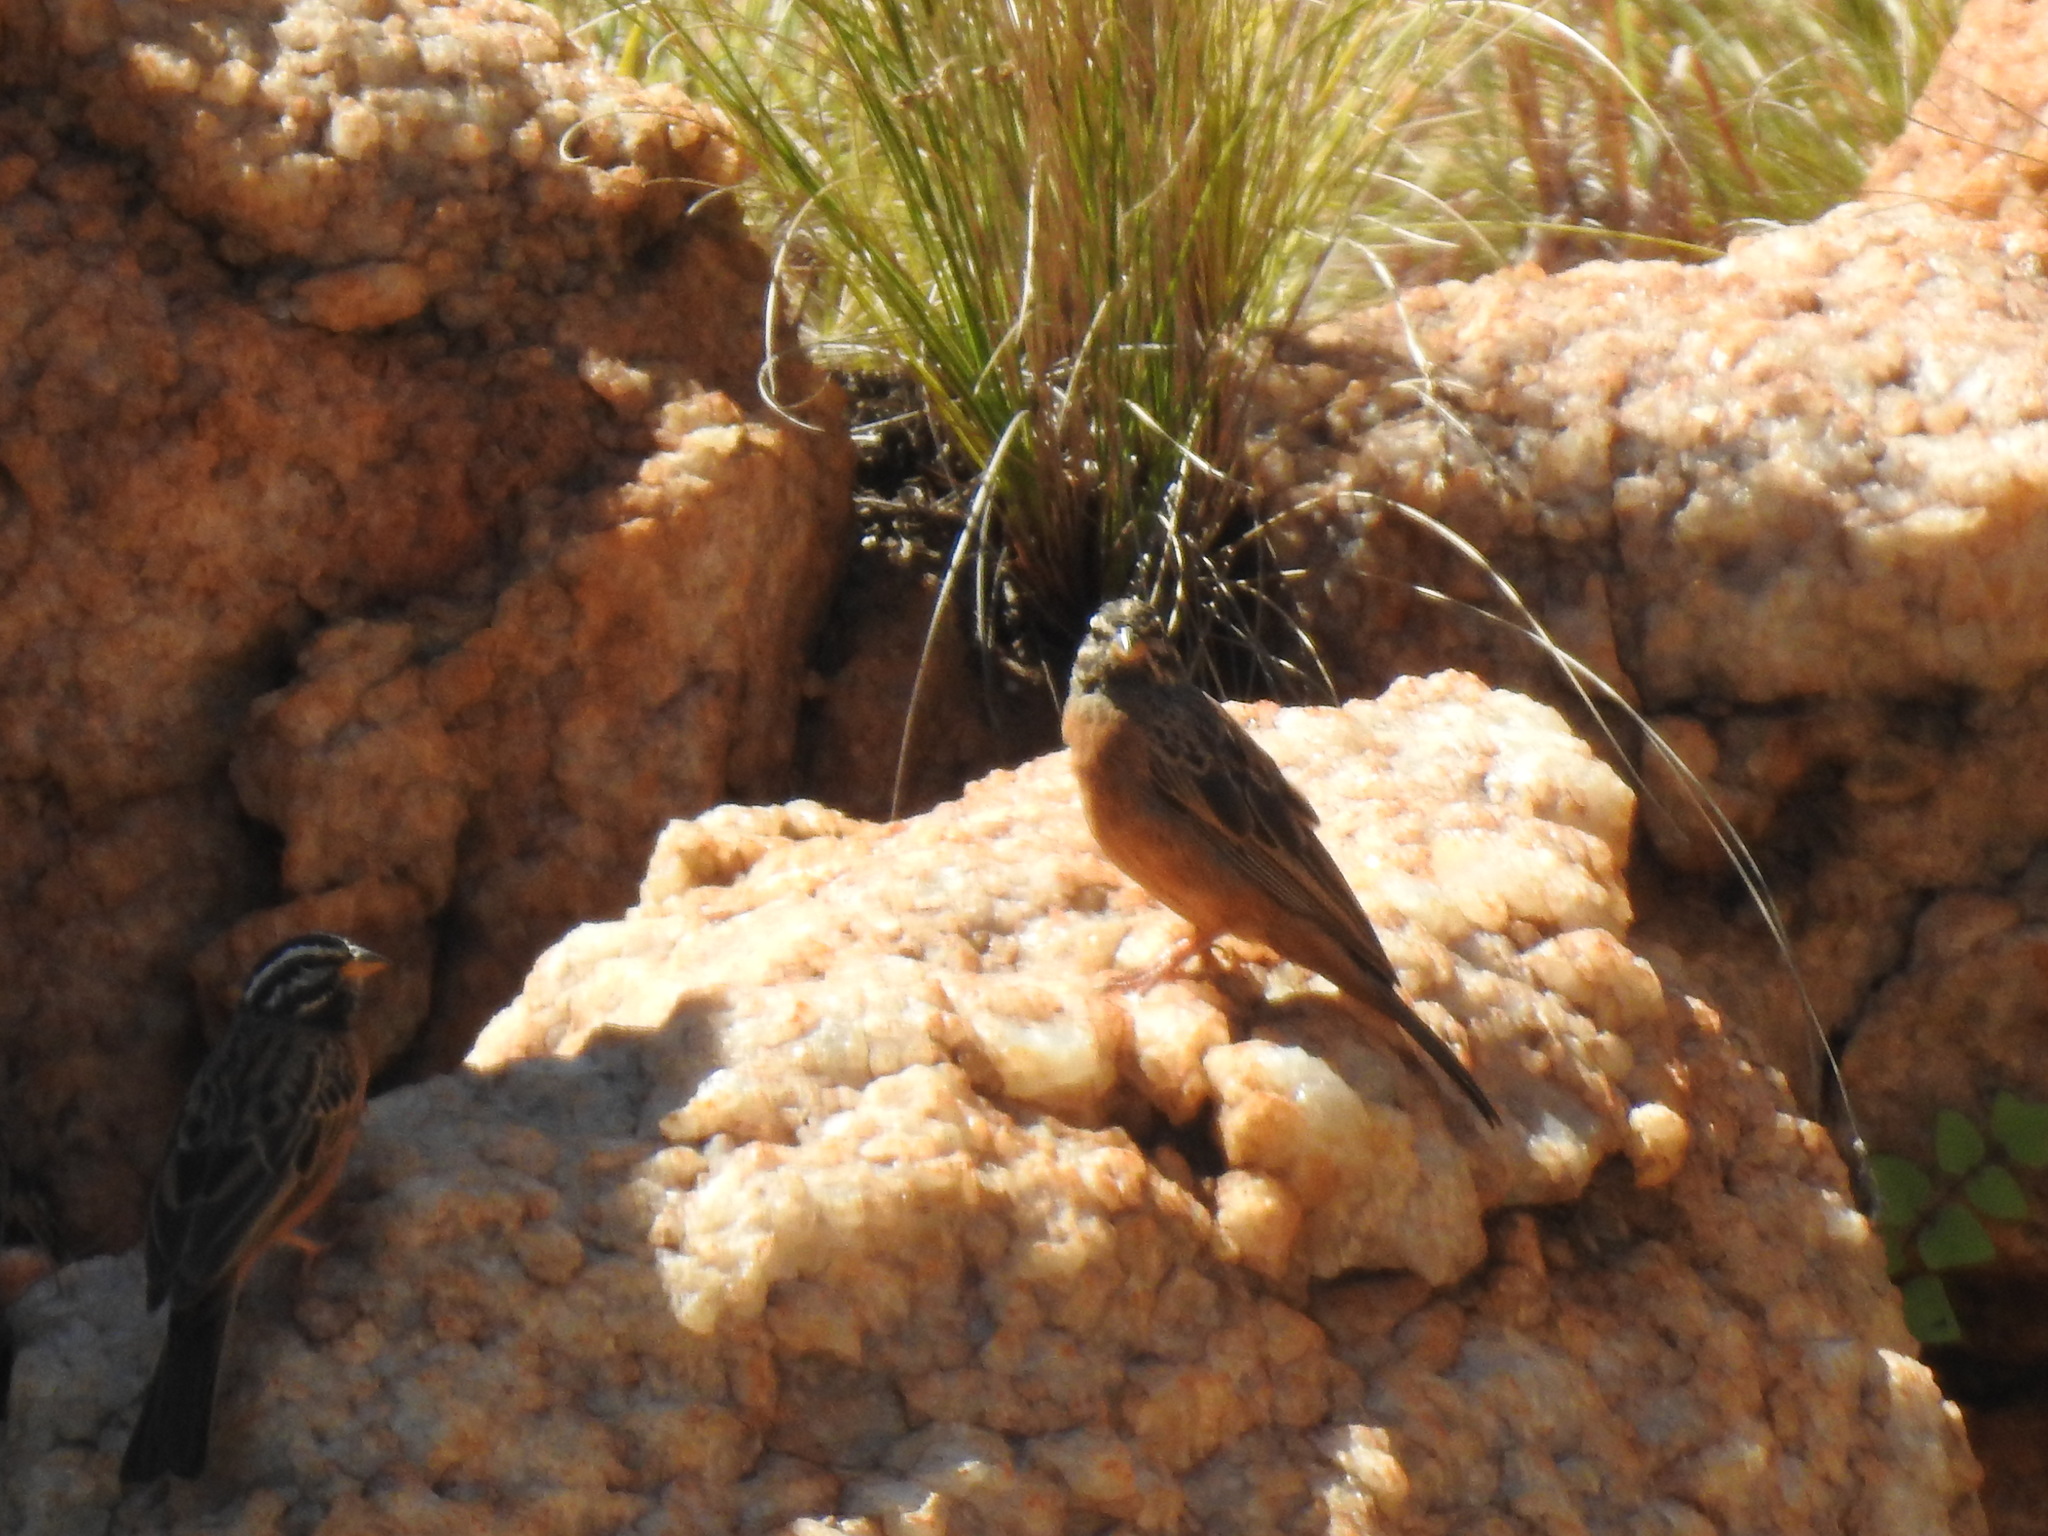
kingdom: Animalia
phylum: Chordata
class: Aves
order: Passeriformes
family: Emberizidae
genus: Emberiza
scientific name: Emberiza tahapisi
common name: Cinnamon-breasted bunting
